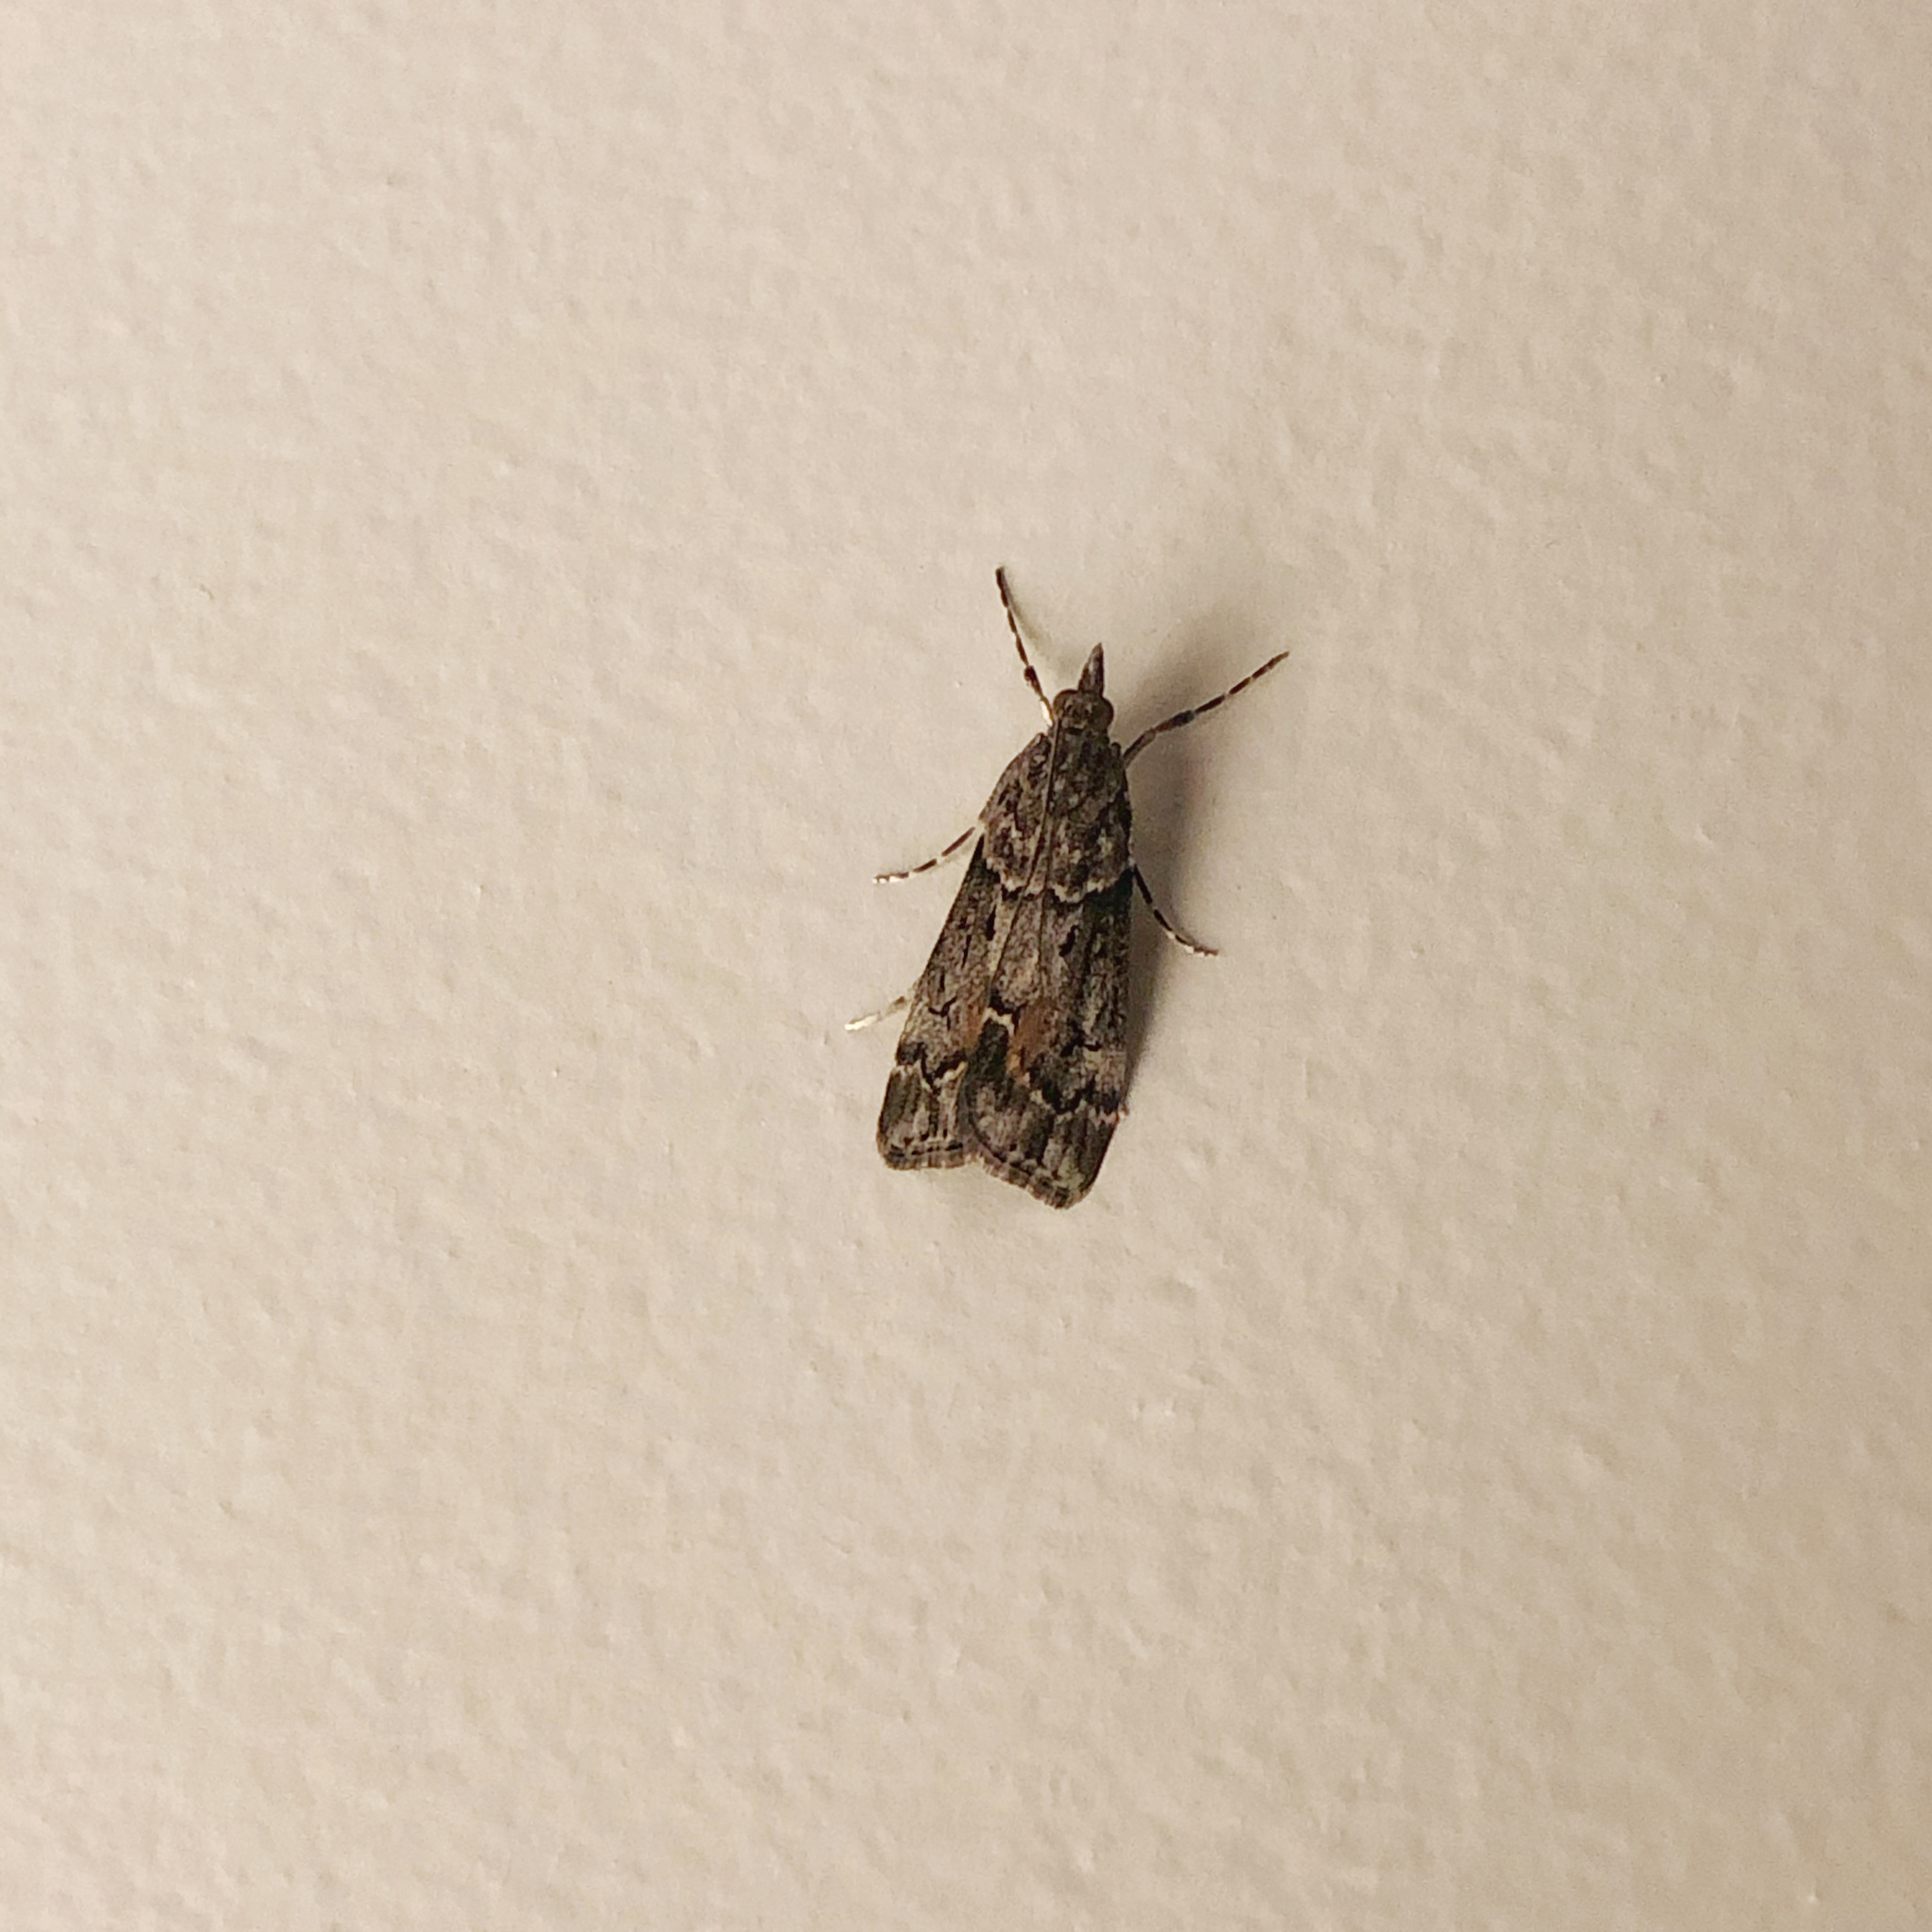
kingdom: Animalia
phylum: Arthropoda
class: Insecta
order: Lepidoptera
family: Crambidae
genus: Eudonia
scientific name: Eudonia submarginalis
